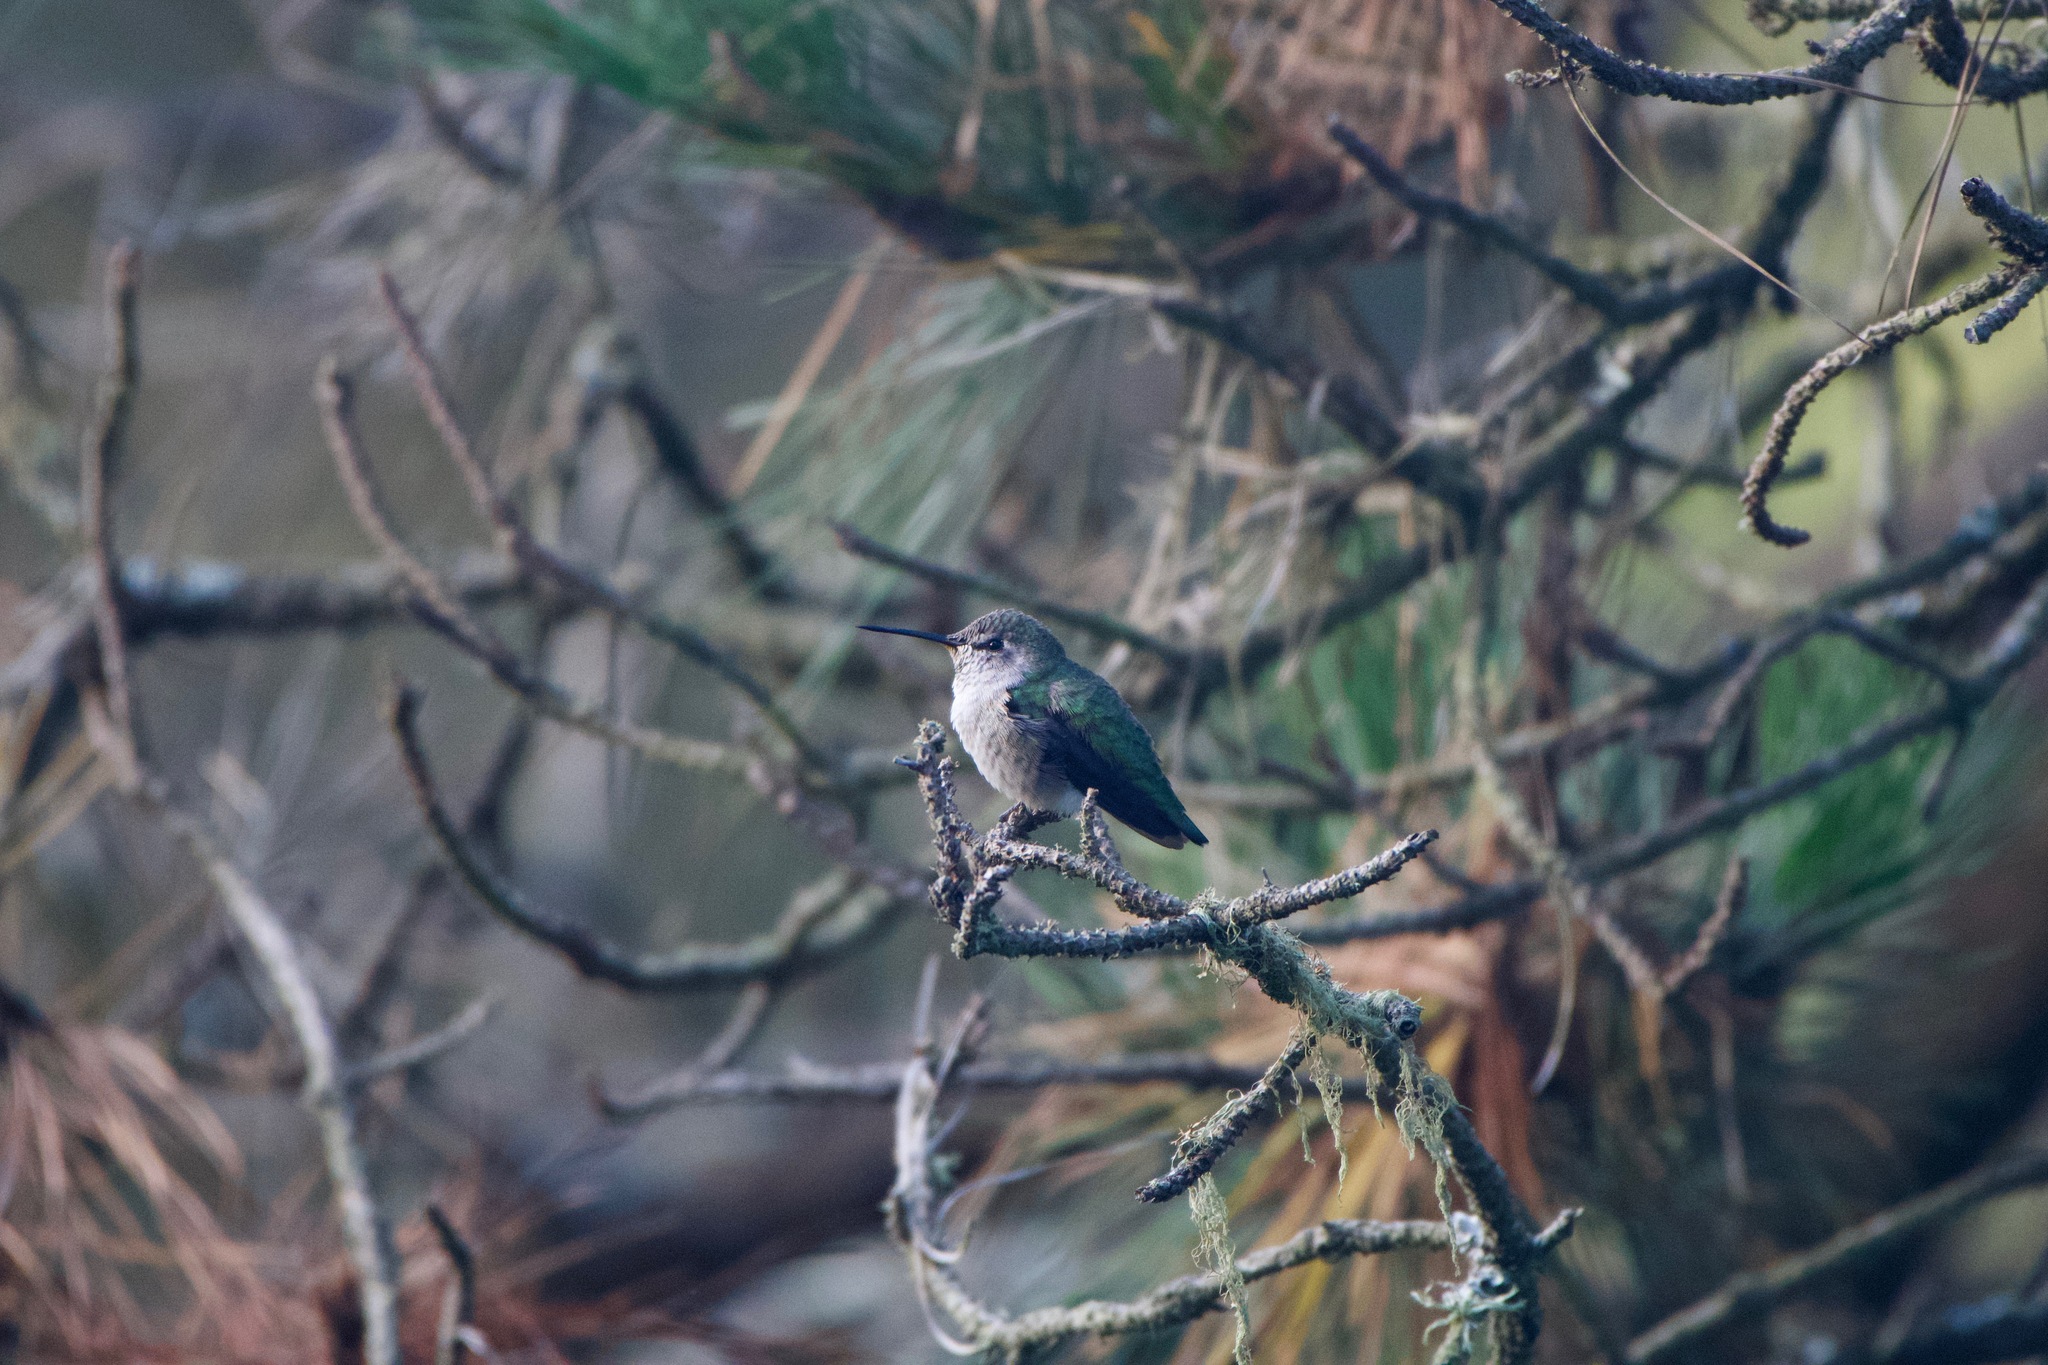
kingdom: Animalia
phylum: Chordata
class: Aves
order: Apodiformes
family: Trochilidae
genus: Calypte
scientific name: Calypte anna
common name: Anna's hummingbird
